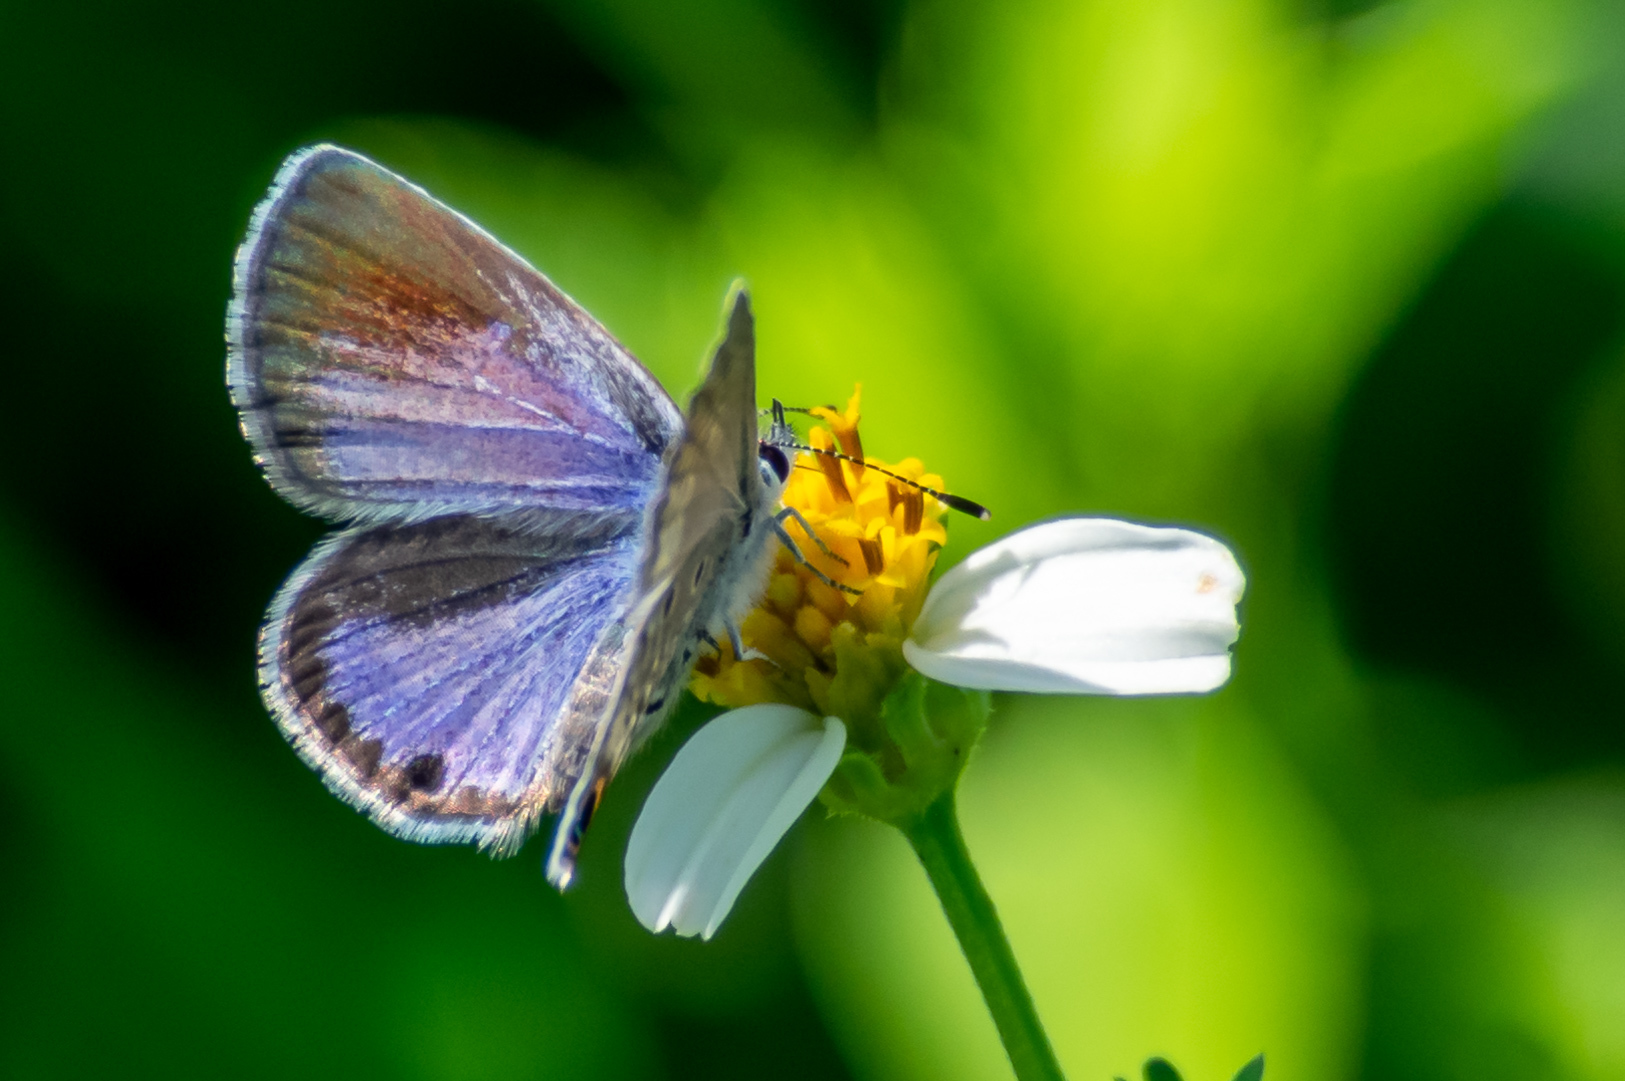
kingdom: Animalia
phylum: Arthropoda
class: Insecta
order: Lepidoptera
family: Lycaenidae
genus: Hemiargus
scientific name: Hemiargus ceraunus
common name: Ceraunus blue
